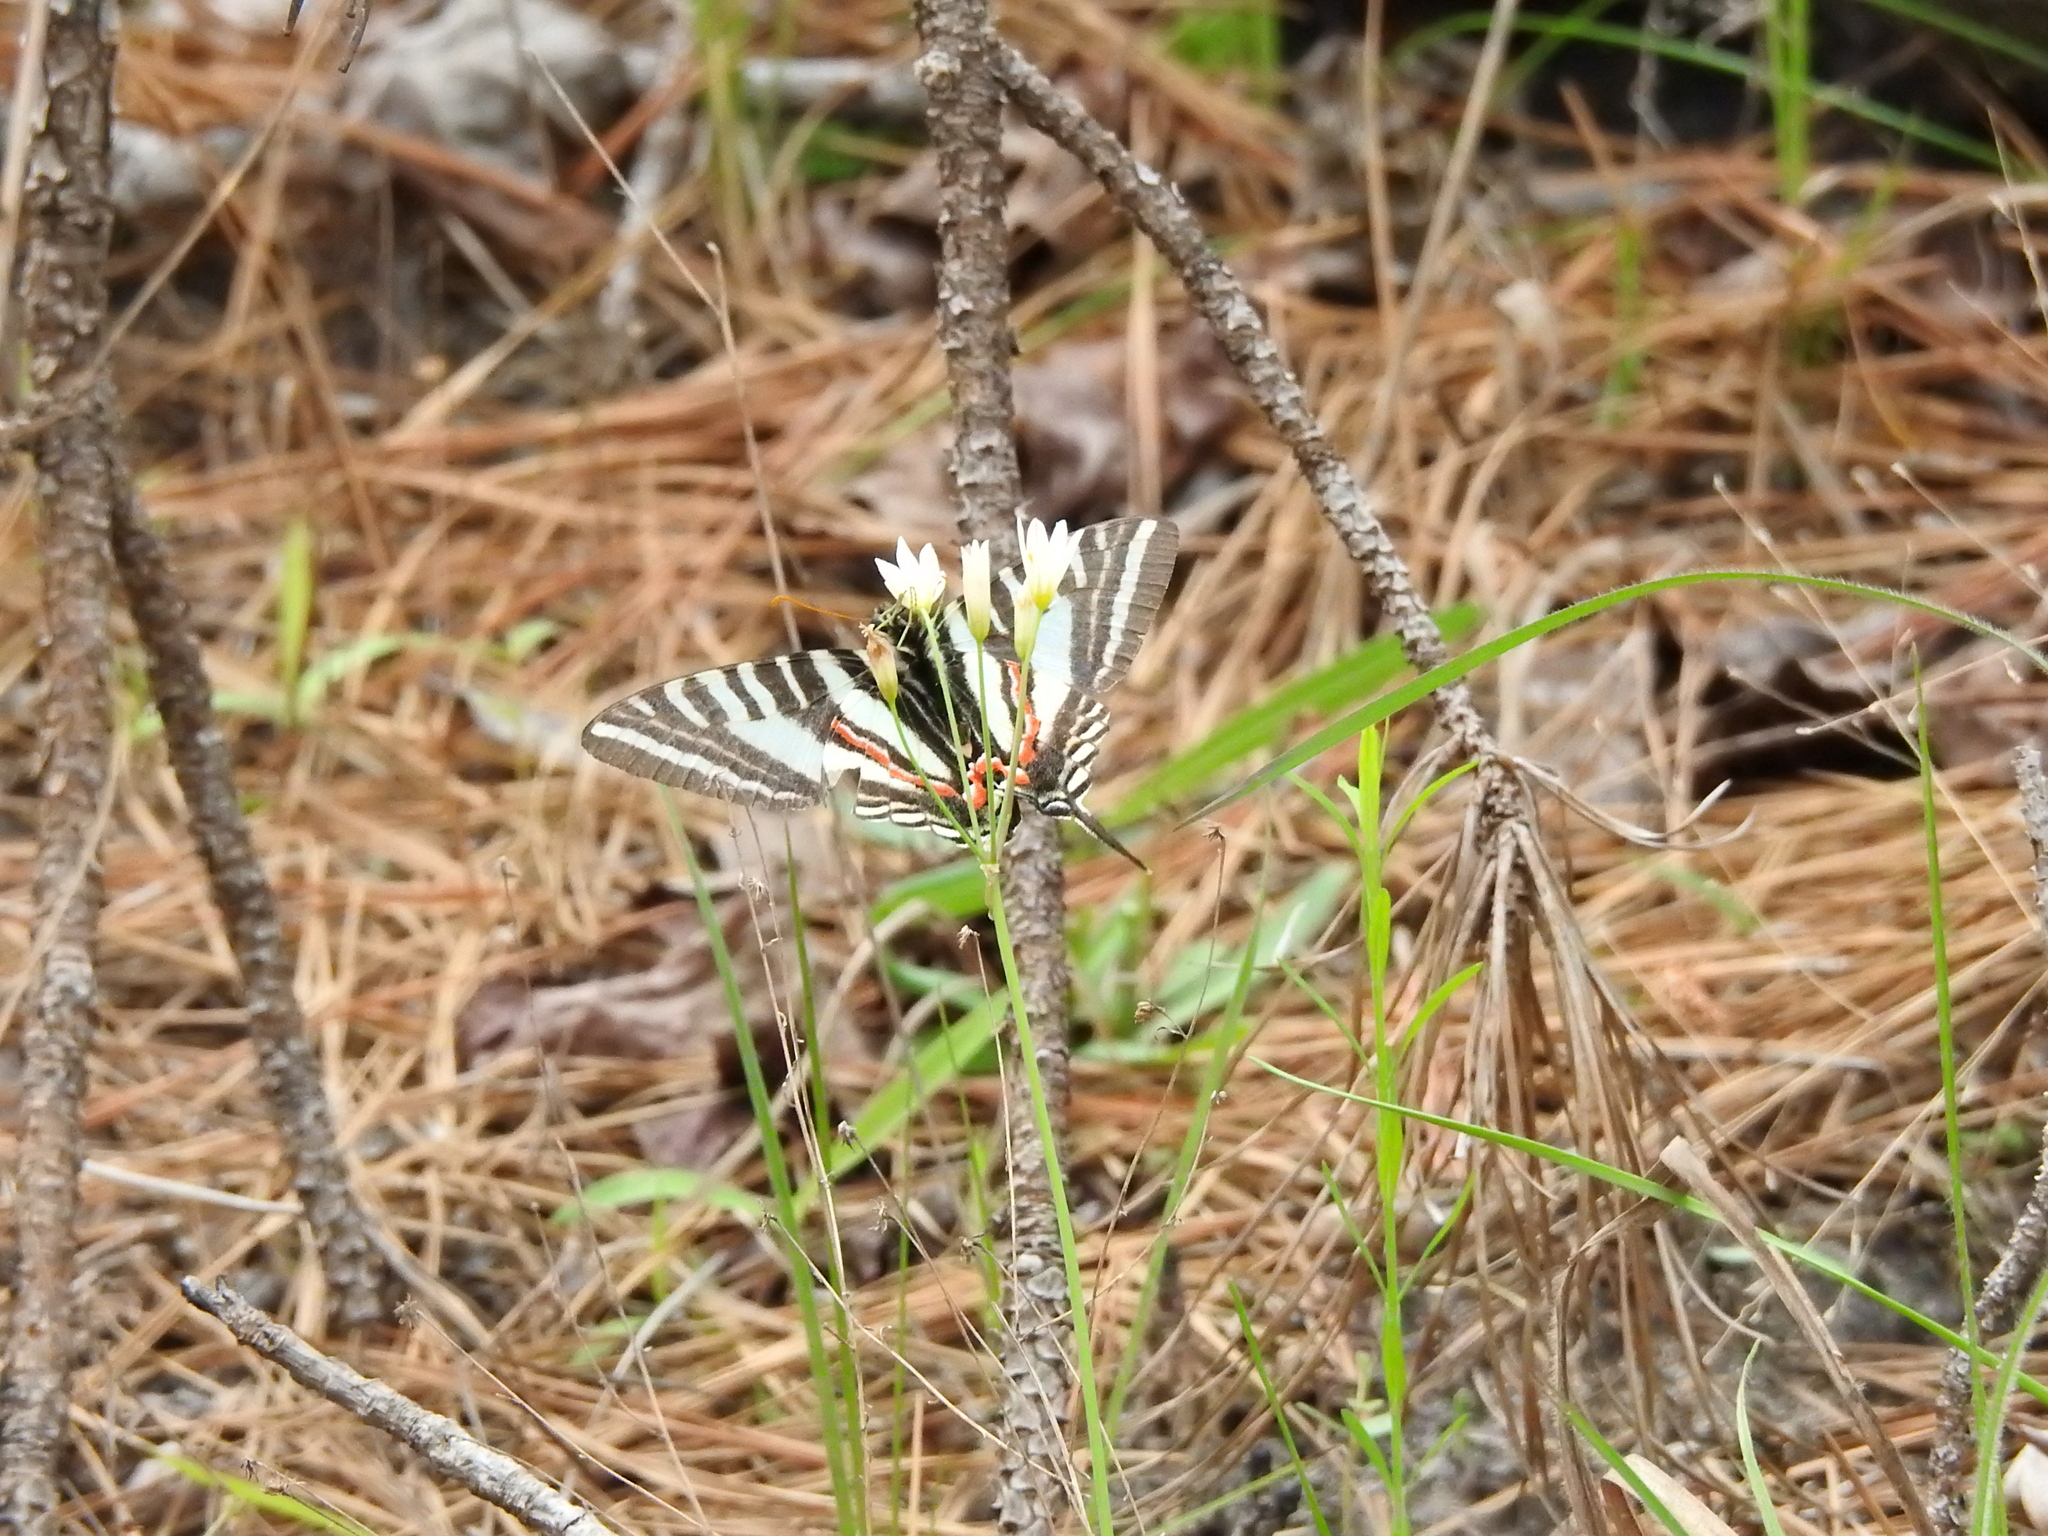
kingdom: Animalia
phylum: Arthropoda
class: Insecta
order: Lepidoptera
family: Papilionidae
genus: Protographium
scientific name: Protographium marcellus
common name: Zebra swallowtail
